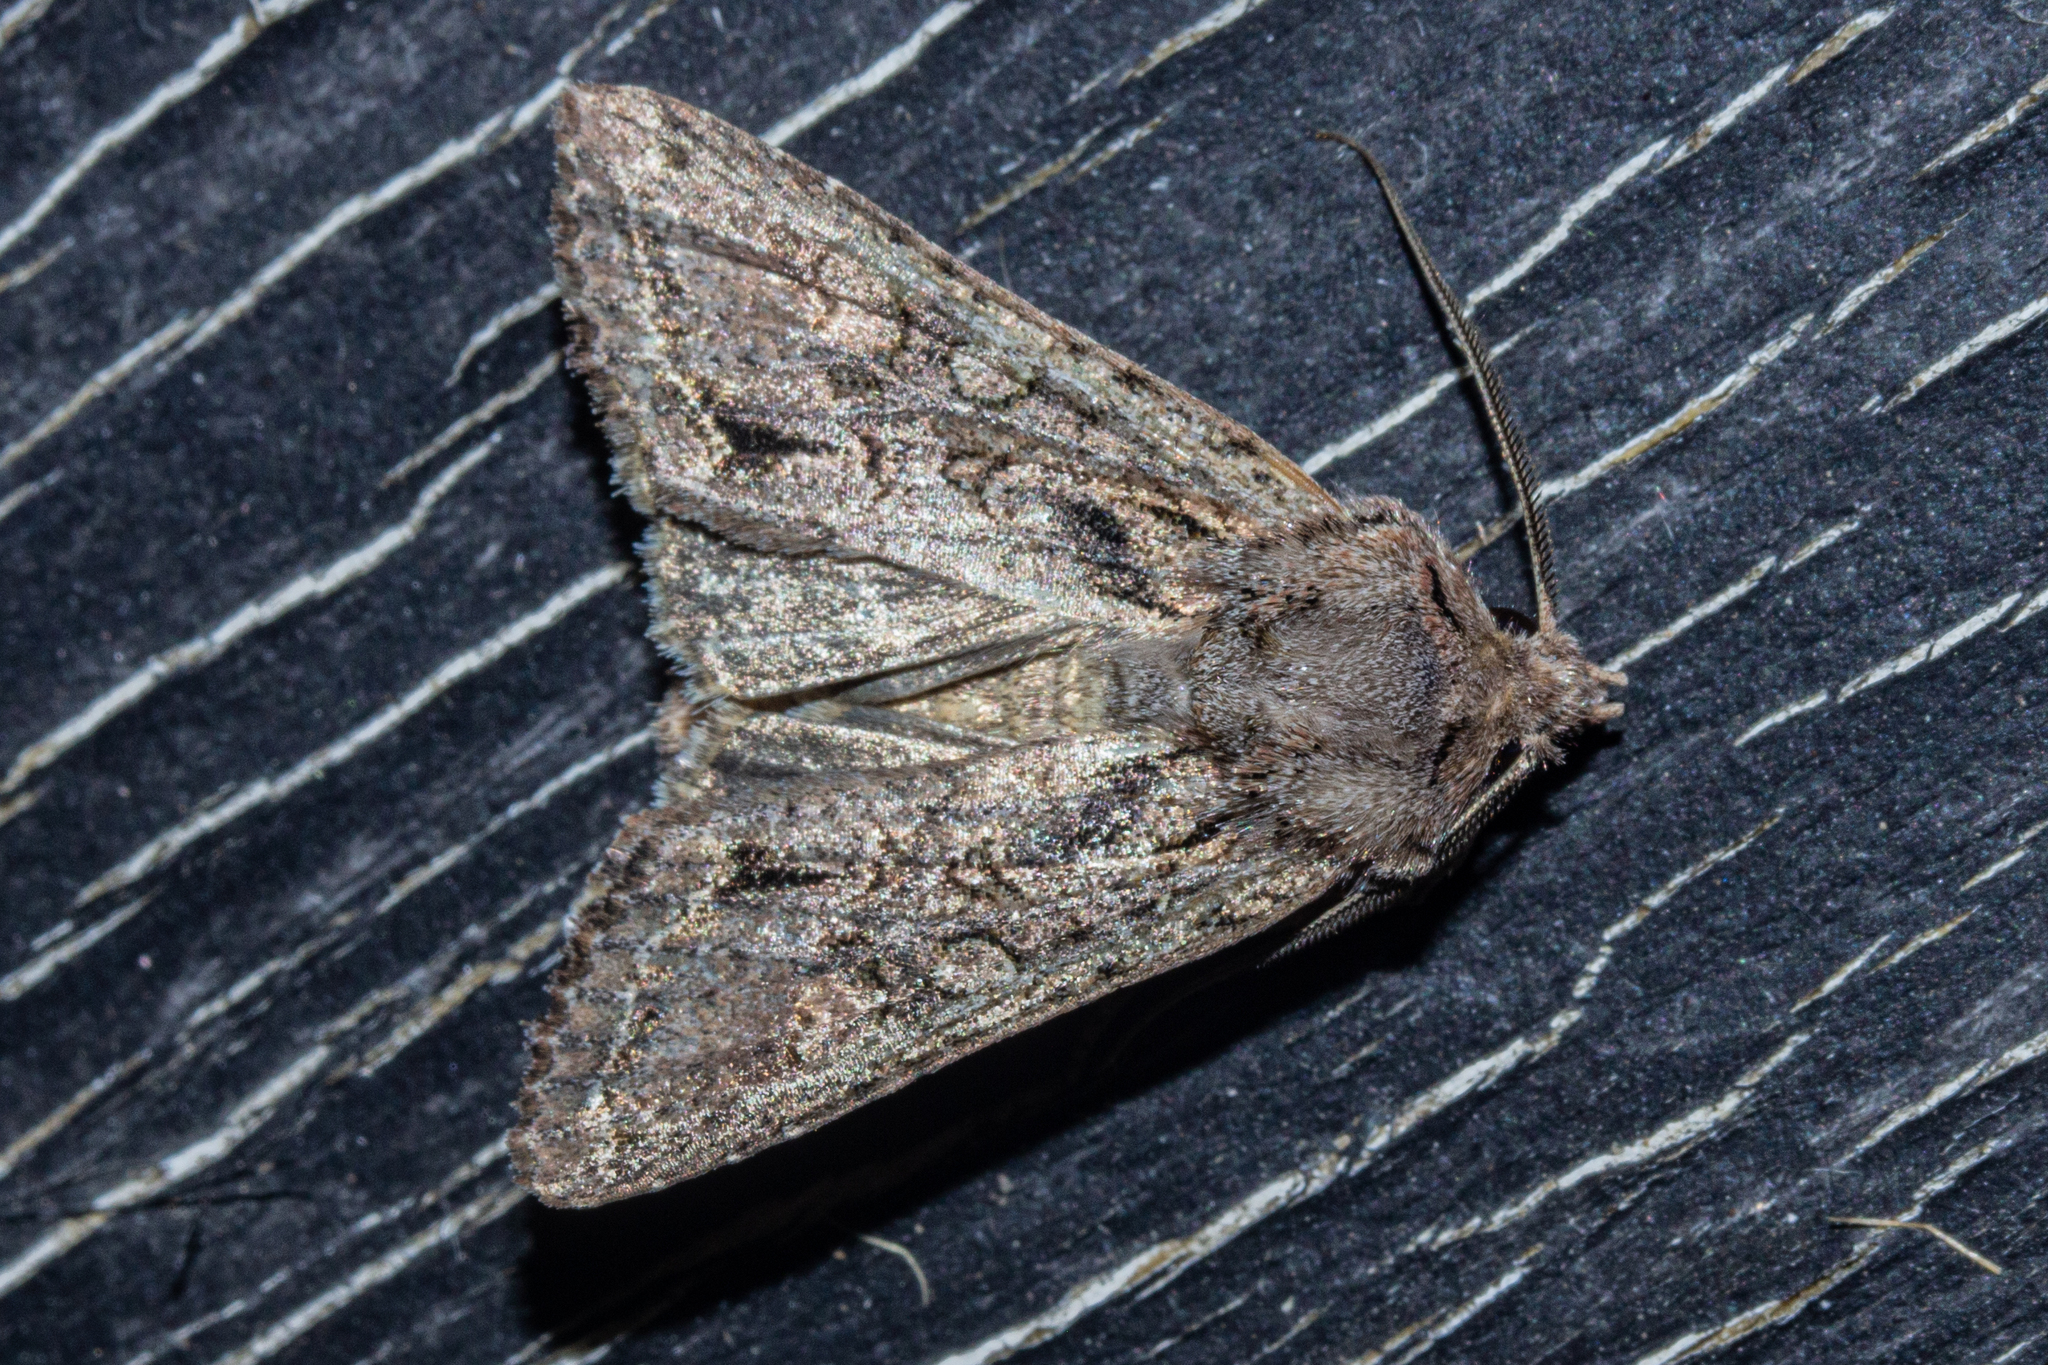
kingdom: Animalia
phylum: Arthropoda
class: Insecta
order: Lepidoptera
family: Noctuidae
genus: Ichneutica
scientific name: Ichneutica mutans
